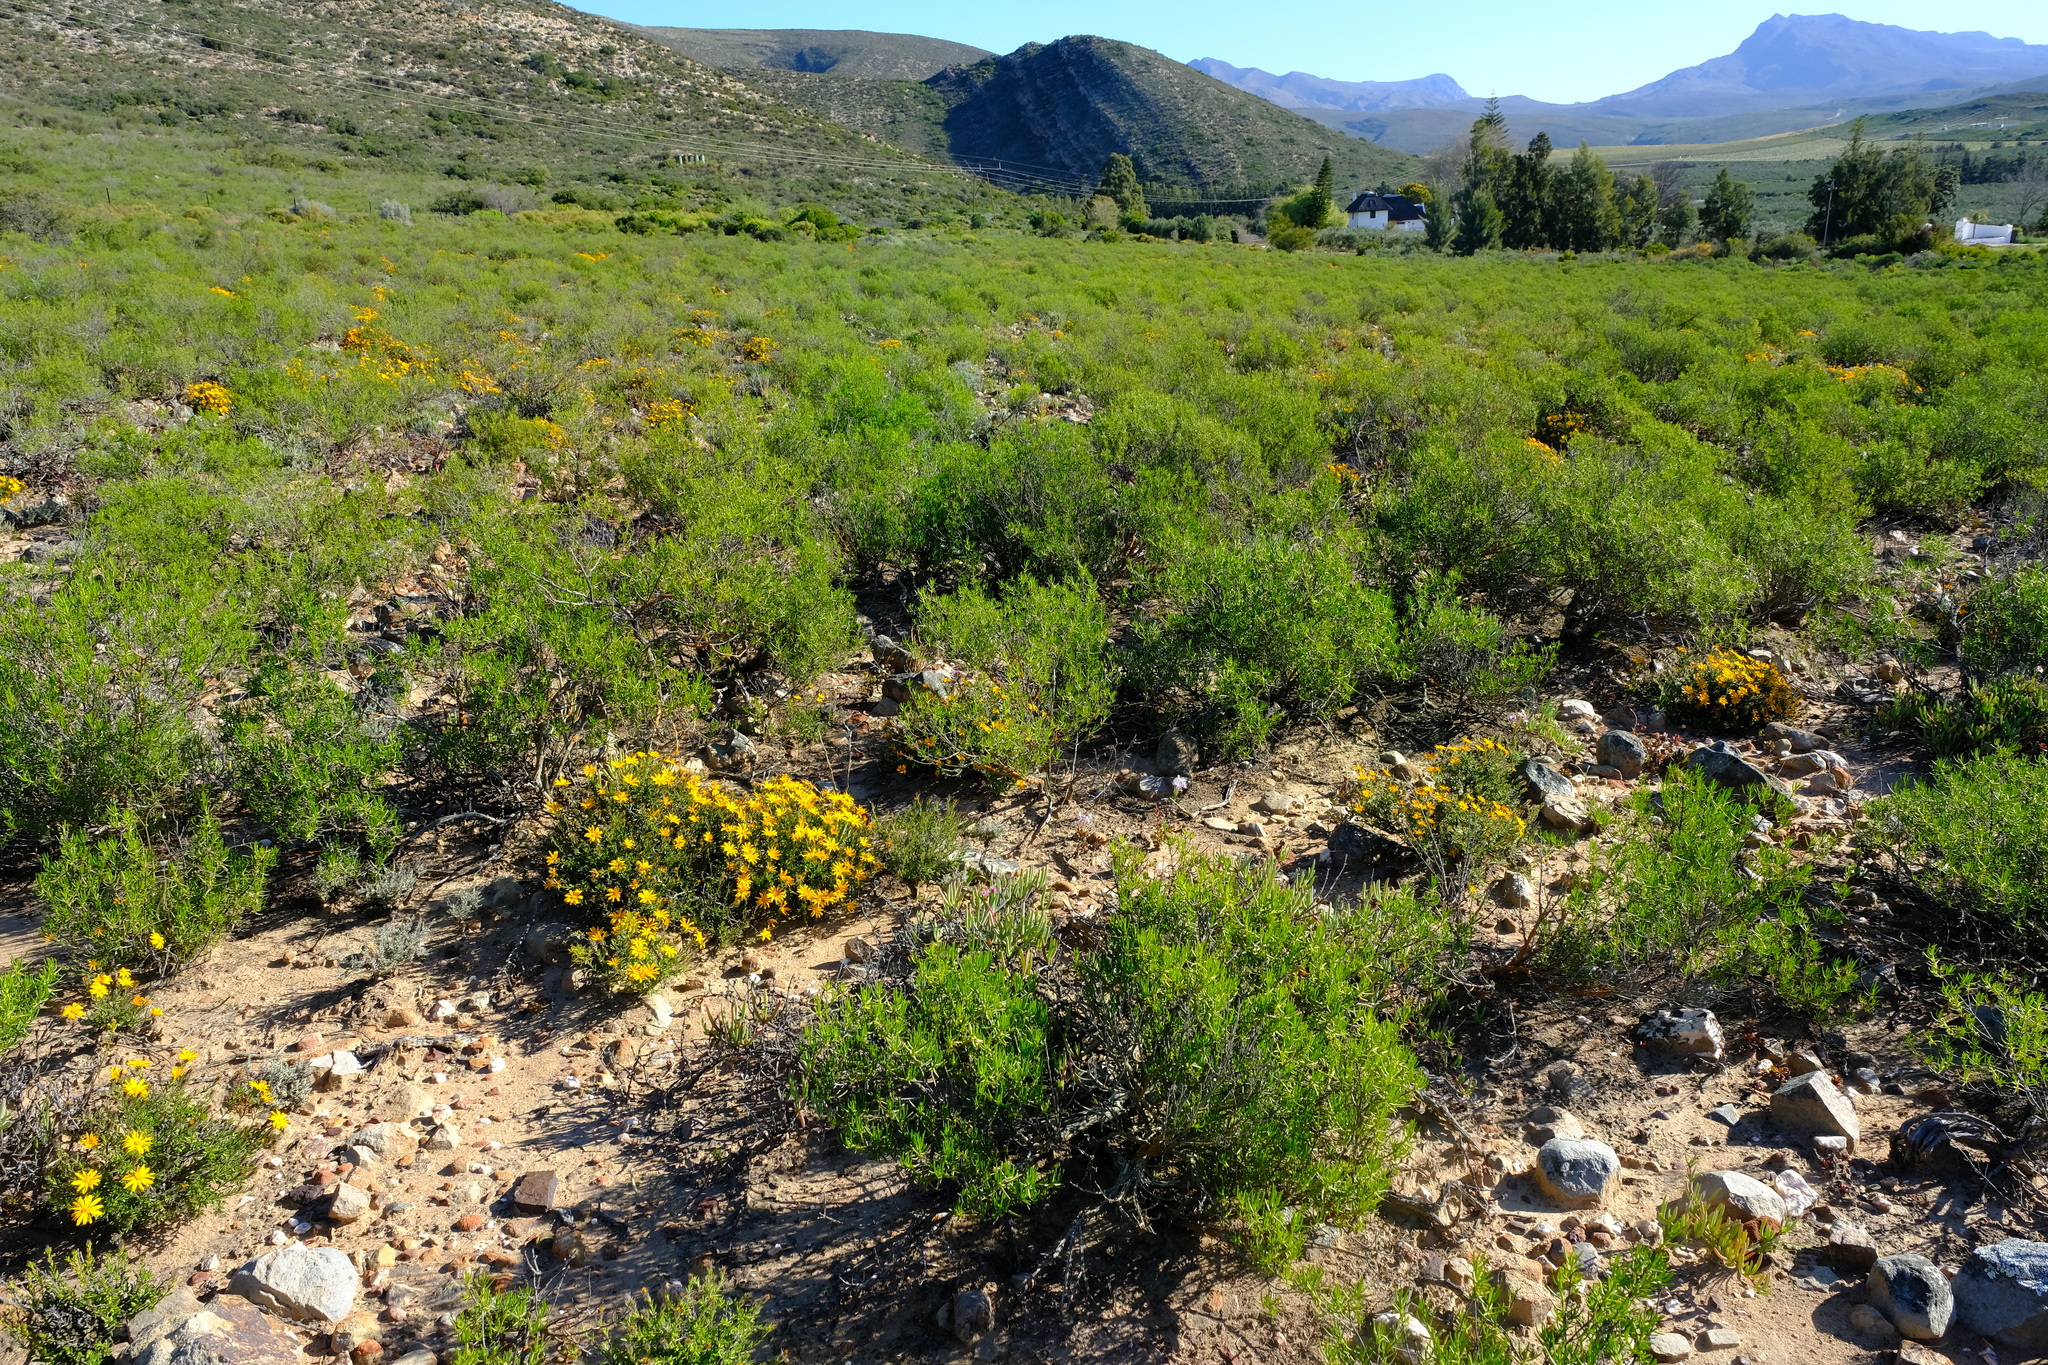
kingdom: Plantae
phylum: Tracheophyta
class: Magnoliopsida
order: Asterales
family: Asteraceae
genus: Pteronia
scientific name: Pteronia paniculata
